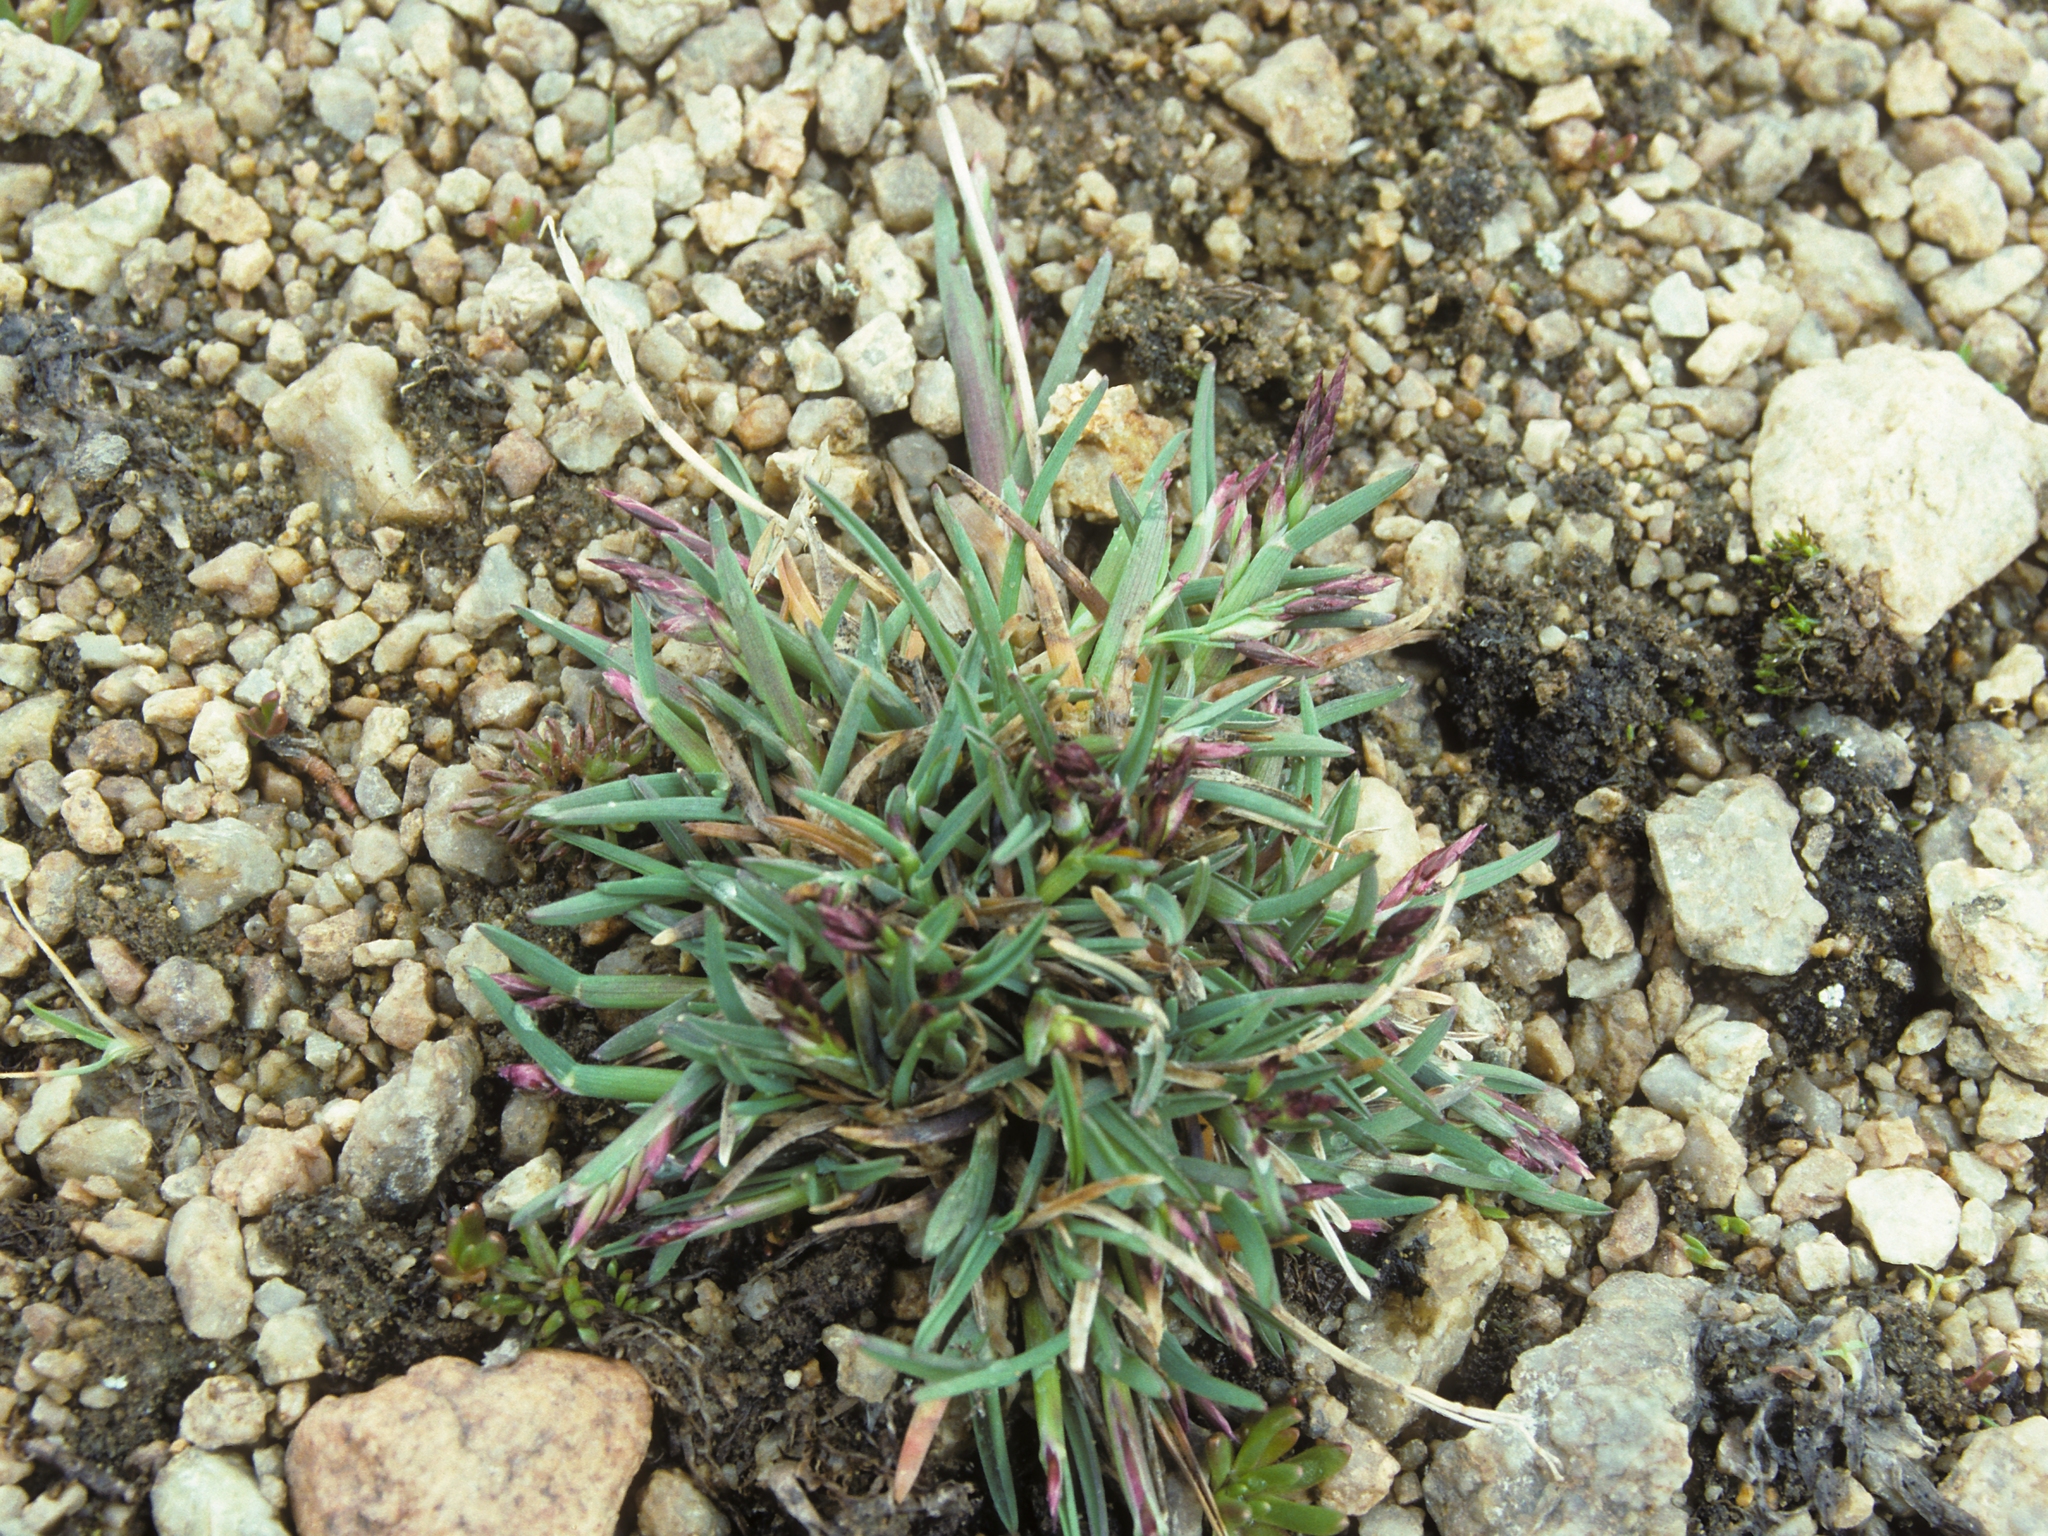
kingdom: Plantae
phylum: Tracheophyta
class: Liliopsida
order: Poales
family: Poaceae
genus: Poa
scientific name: Poa keckii
